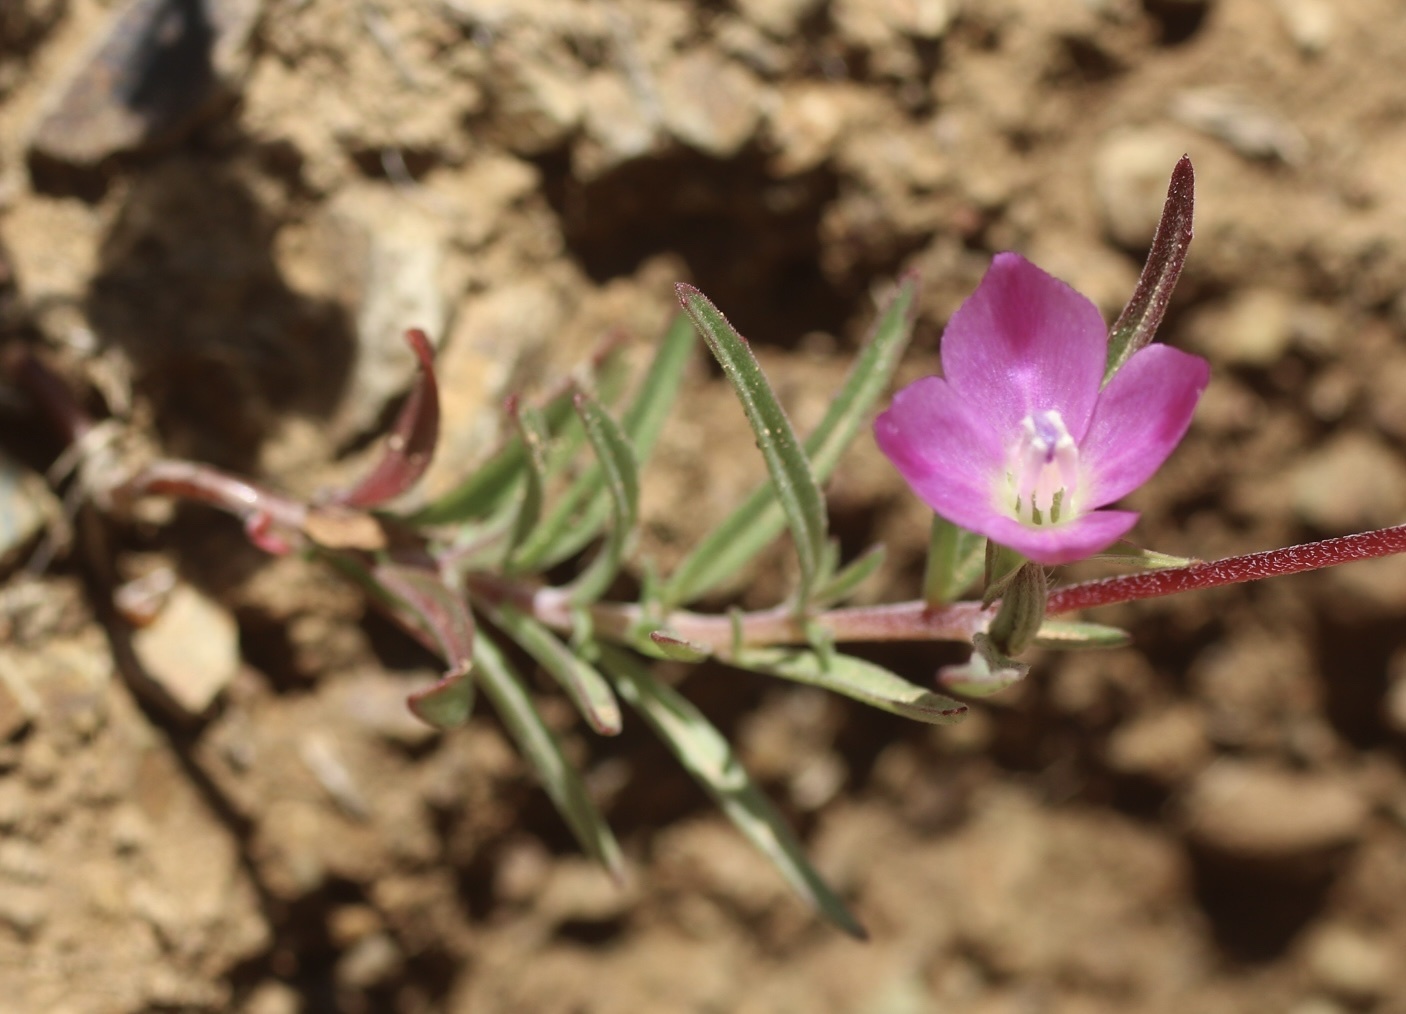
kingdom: Plantae
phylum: Tracheophyta
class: Magnoliopsida
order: Myrtales
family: Onagraceae
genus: Clarkia
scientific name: Clarkia purpurea
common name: Purple clarkia
